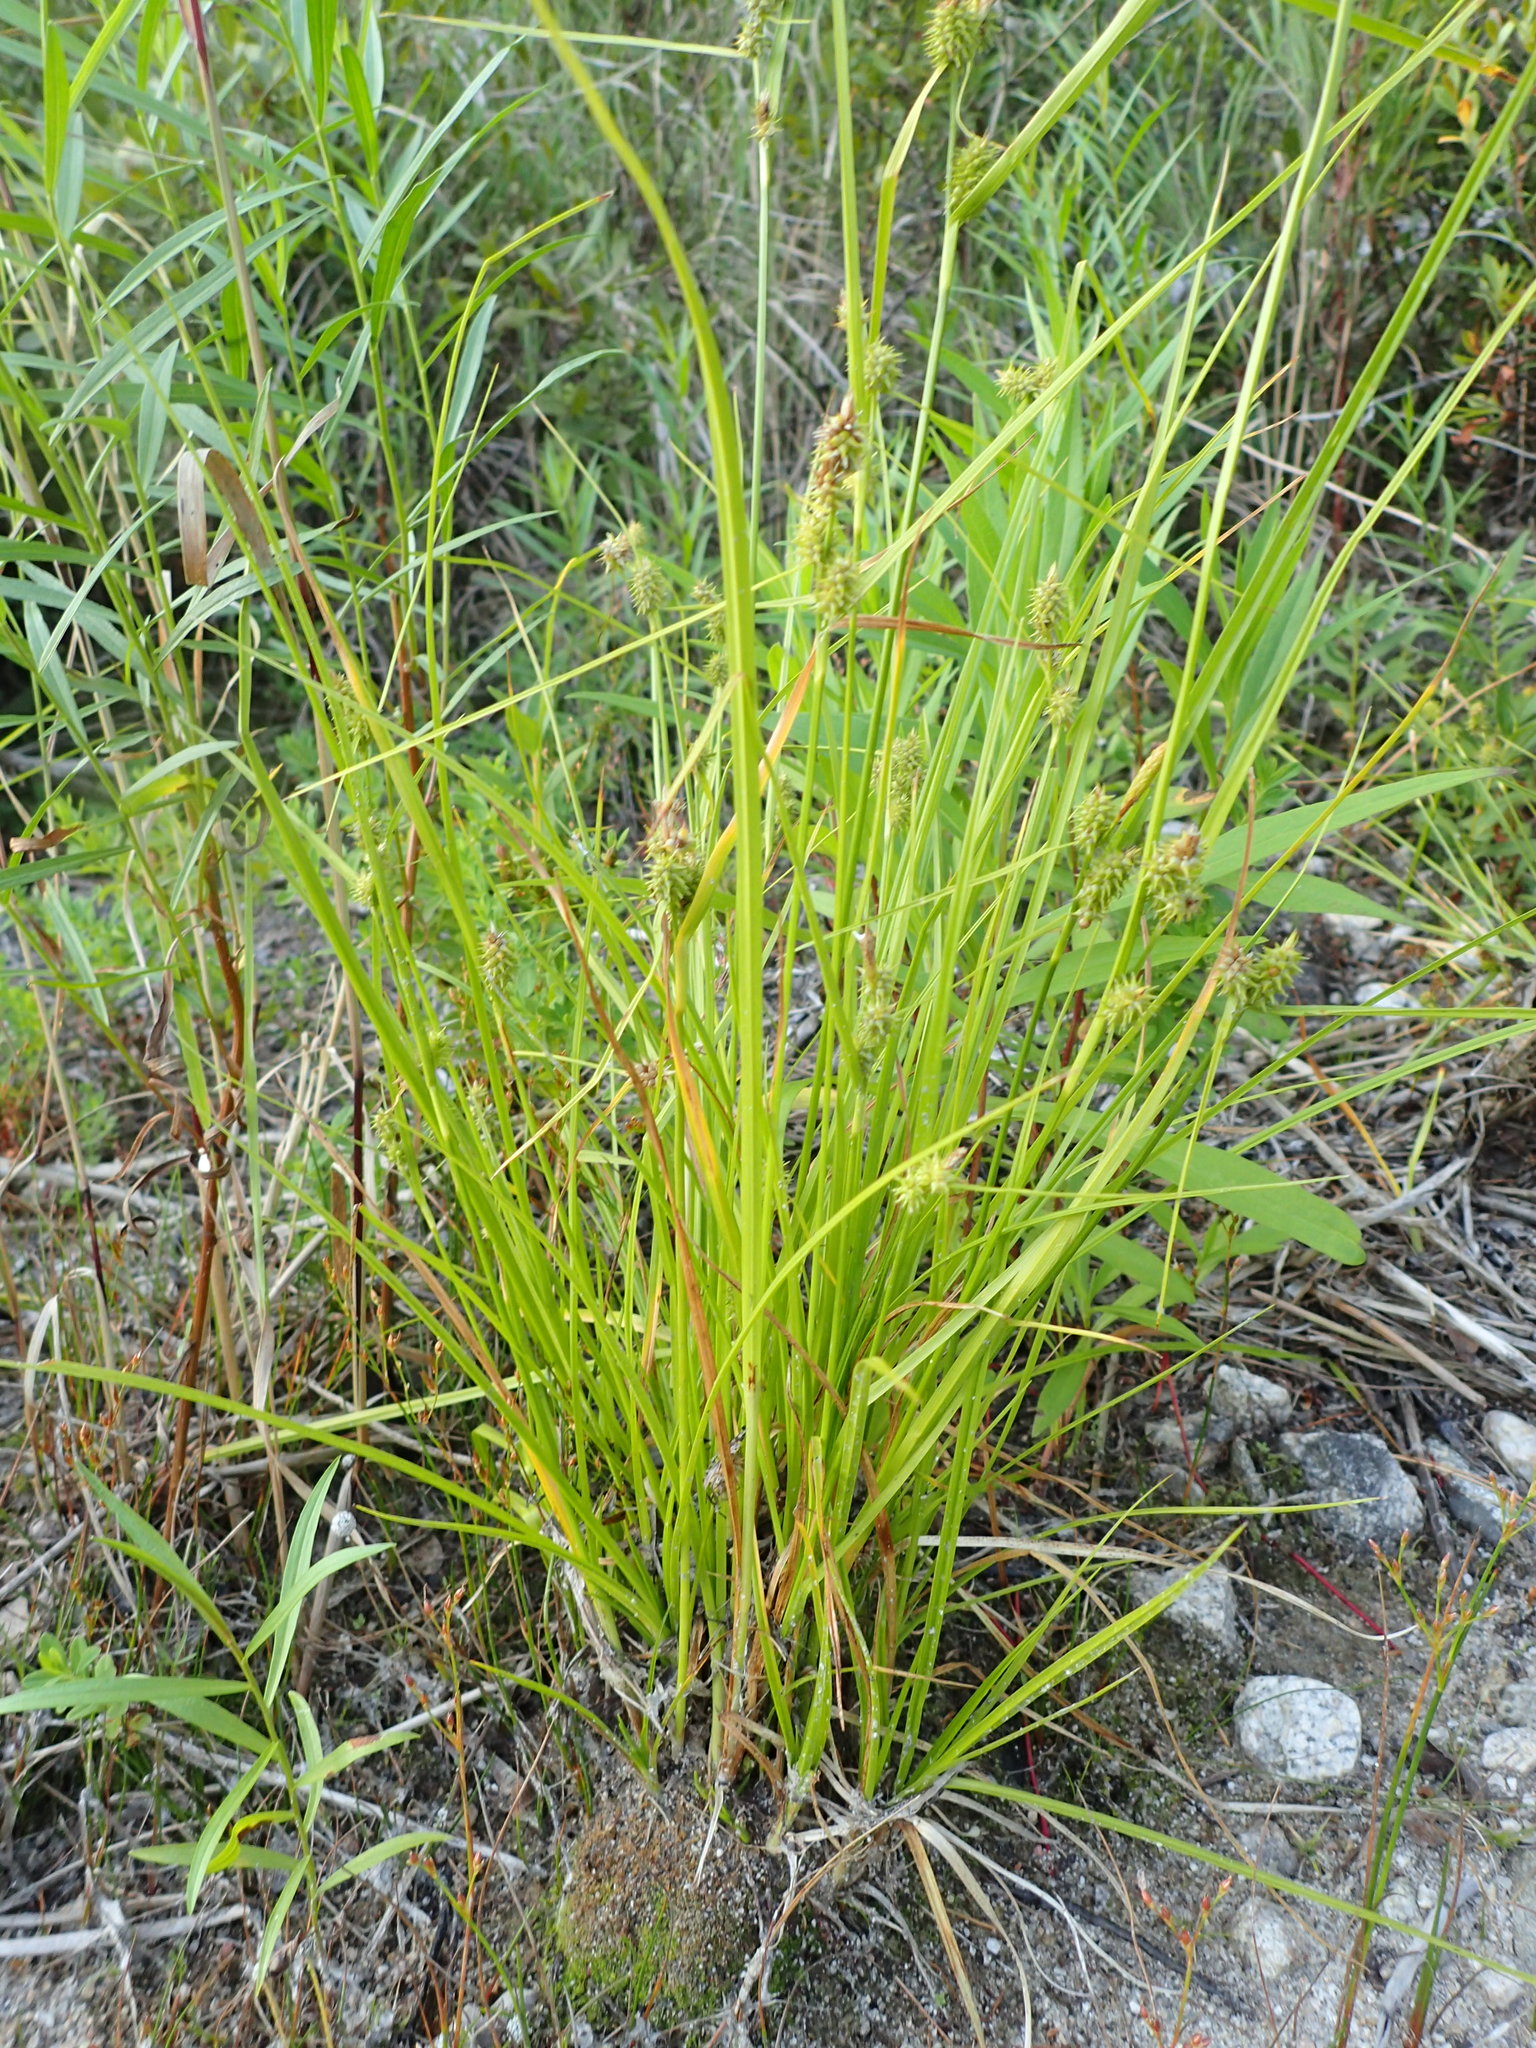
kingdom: Plantae
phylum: Tracheophyta
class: Liliopsida
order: Poales
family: Cyperaceae
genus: Carex
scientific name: Carex cryptolepis
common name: Northeastern sedge
